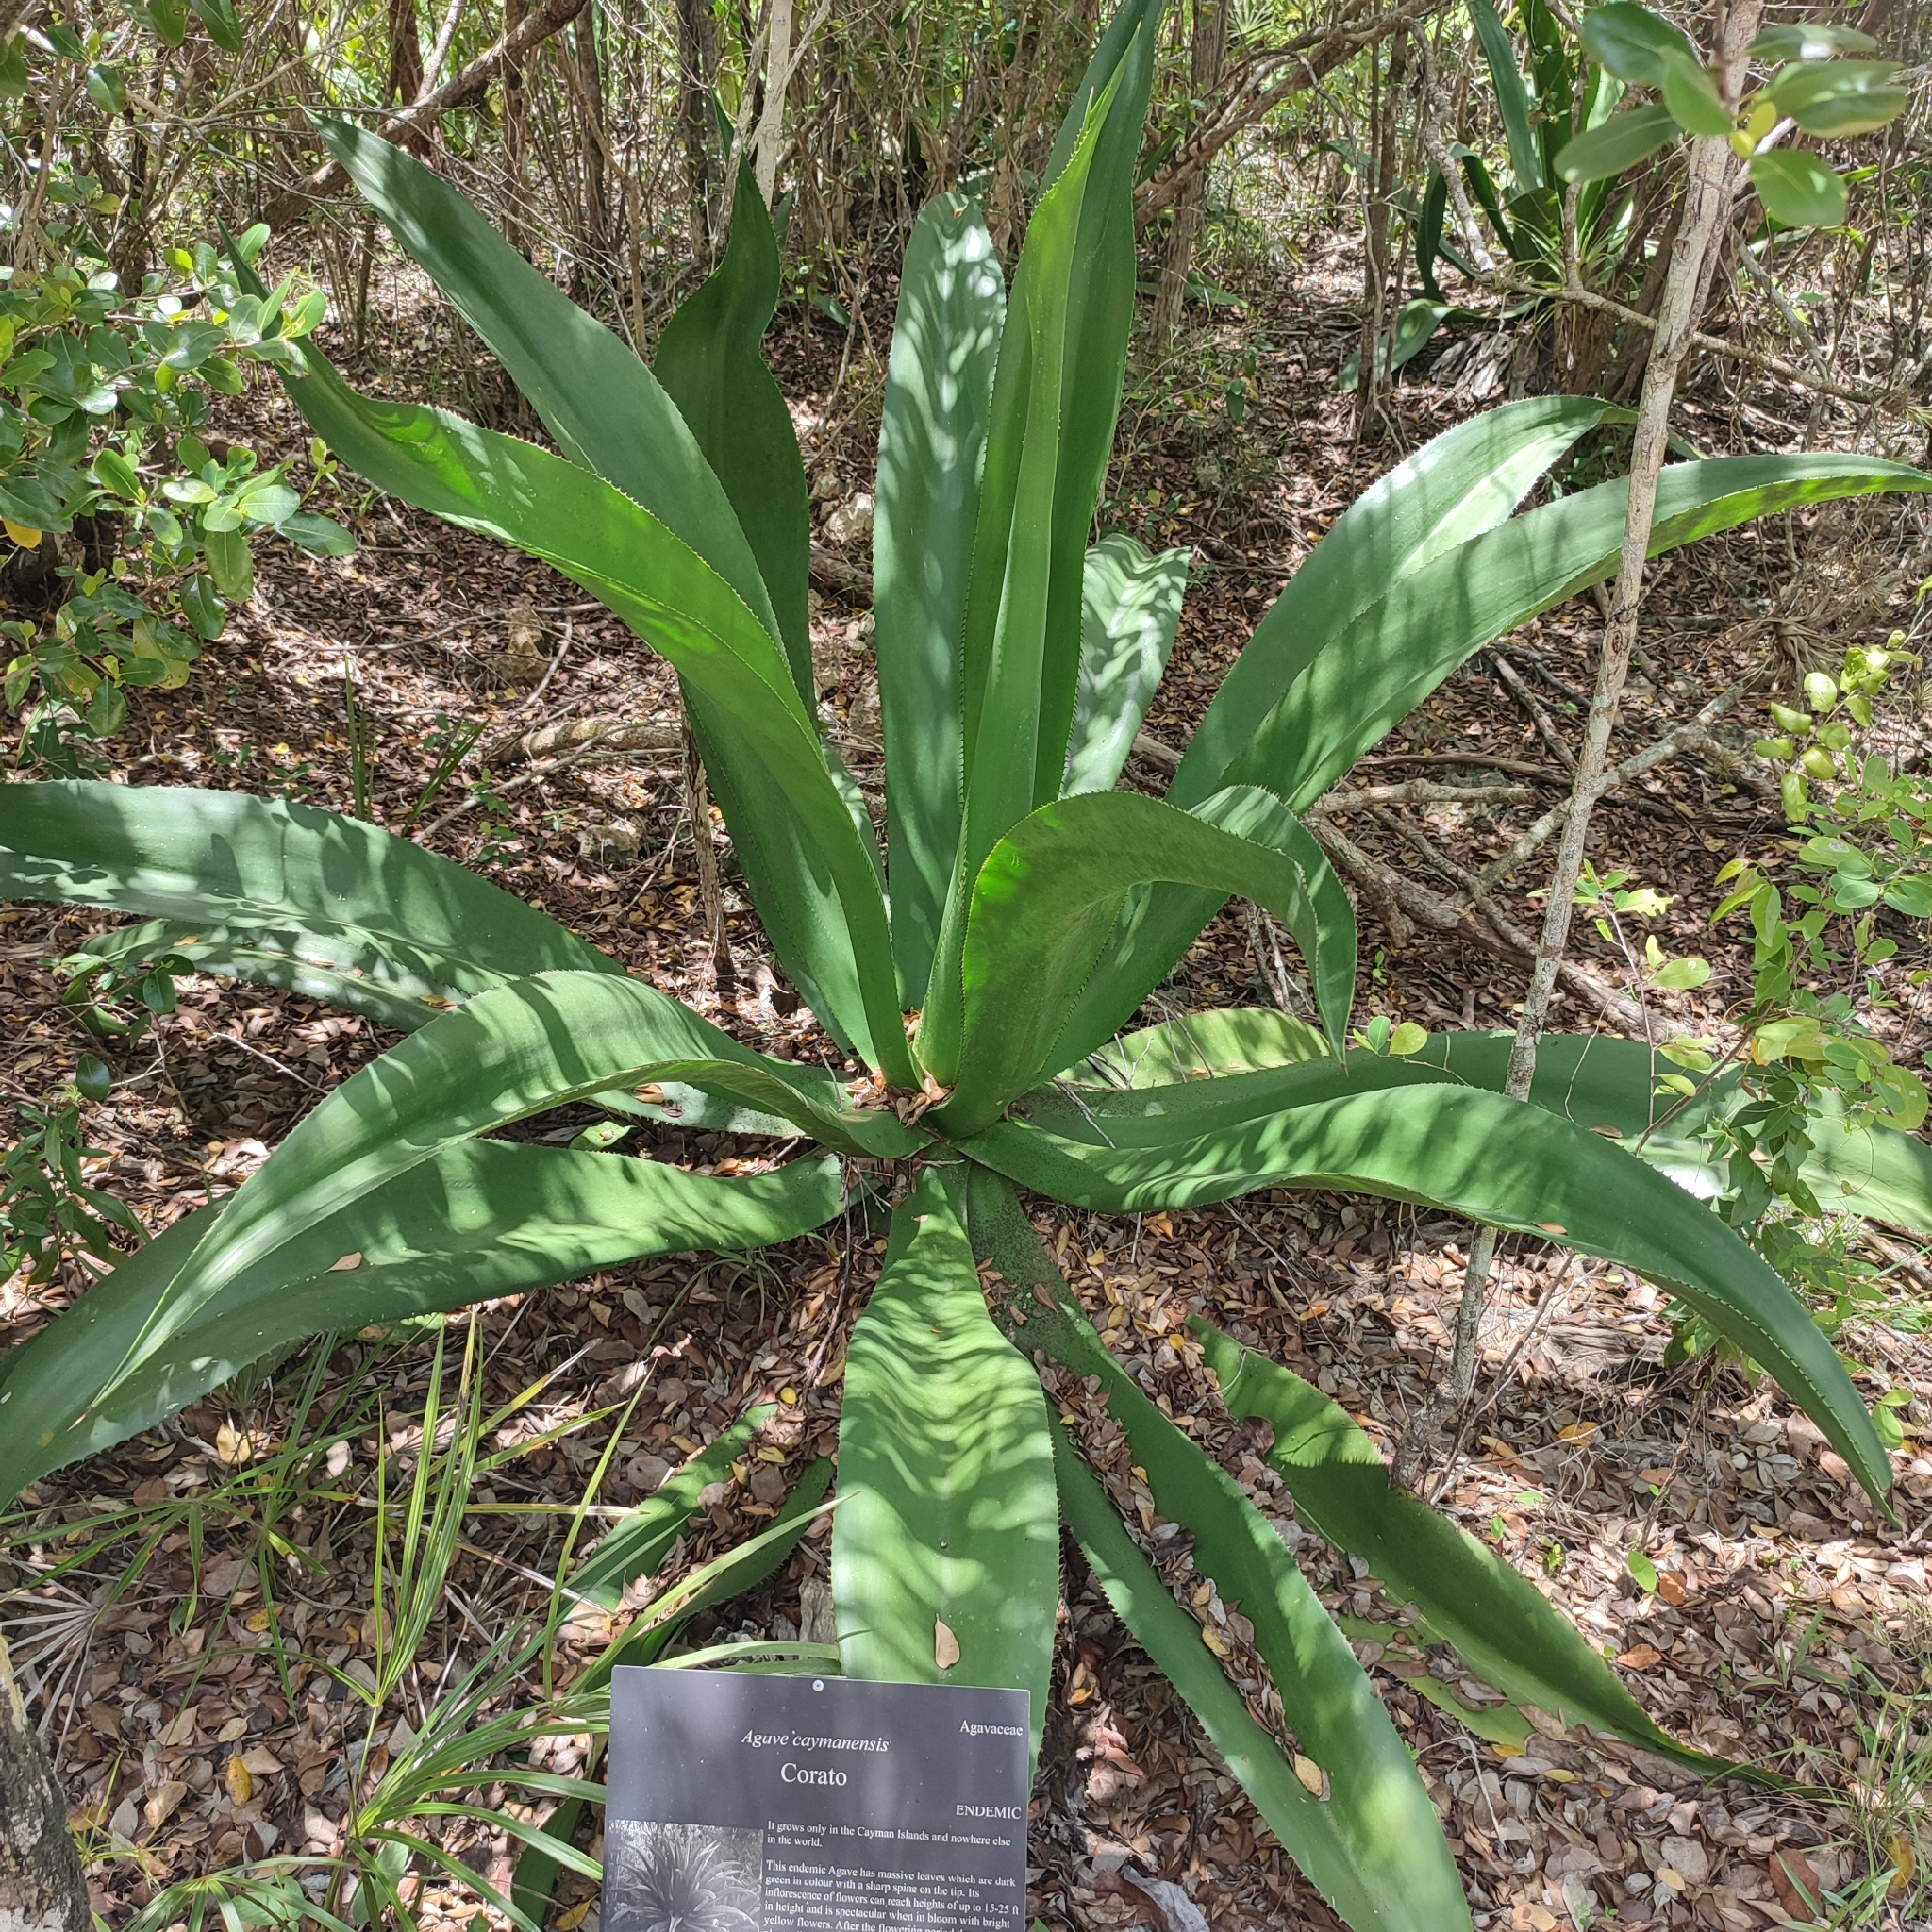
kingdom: Plantae
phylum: Tracheophyta
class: Liliopsida
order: Asparagales
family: Asparagaceae
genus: Agave
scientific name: Agave caymanensis
